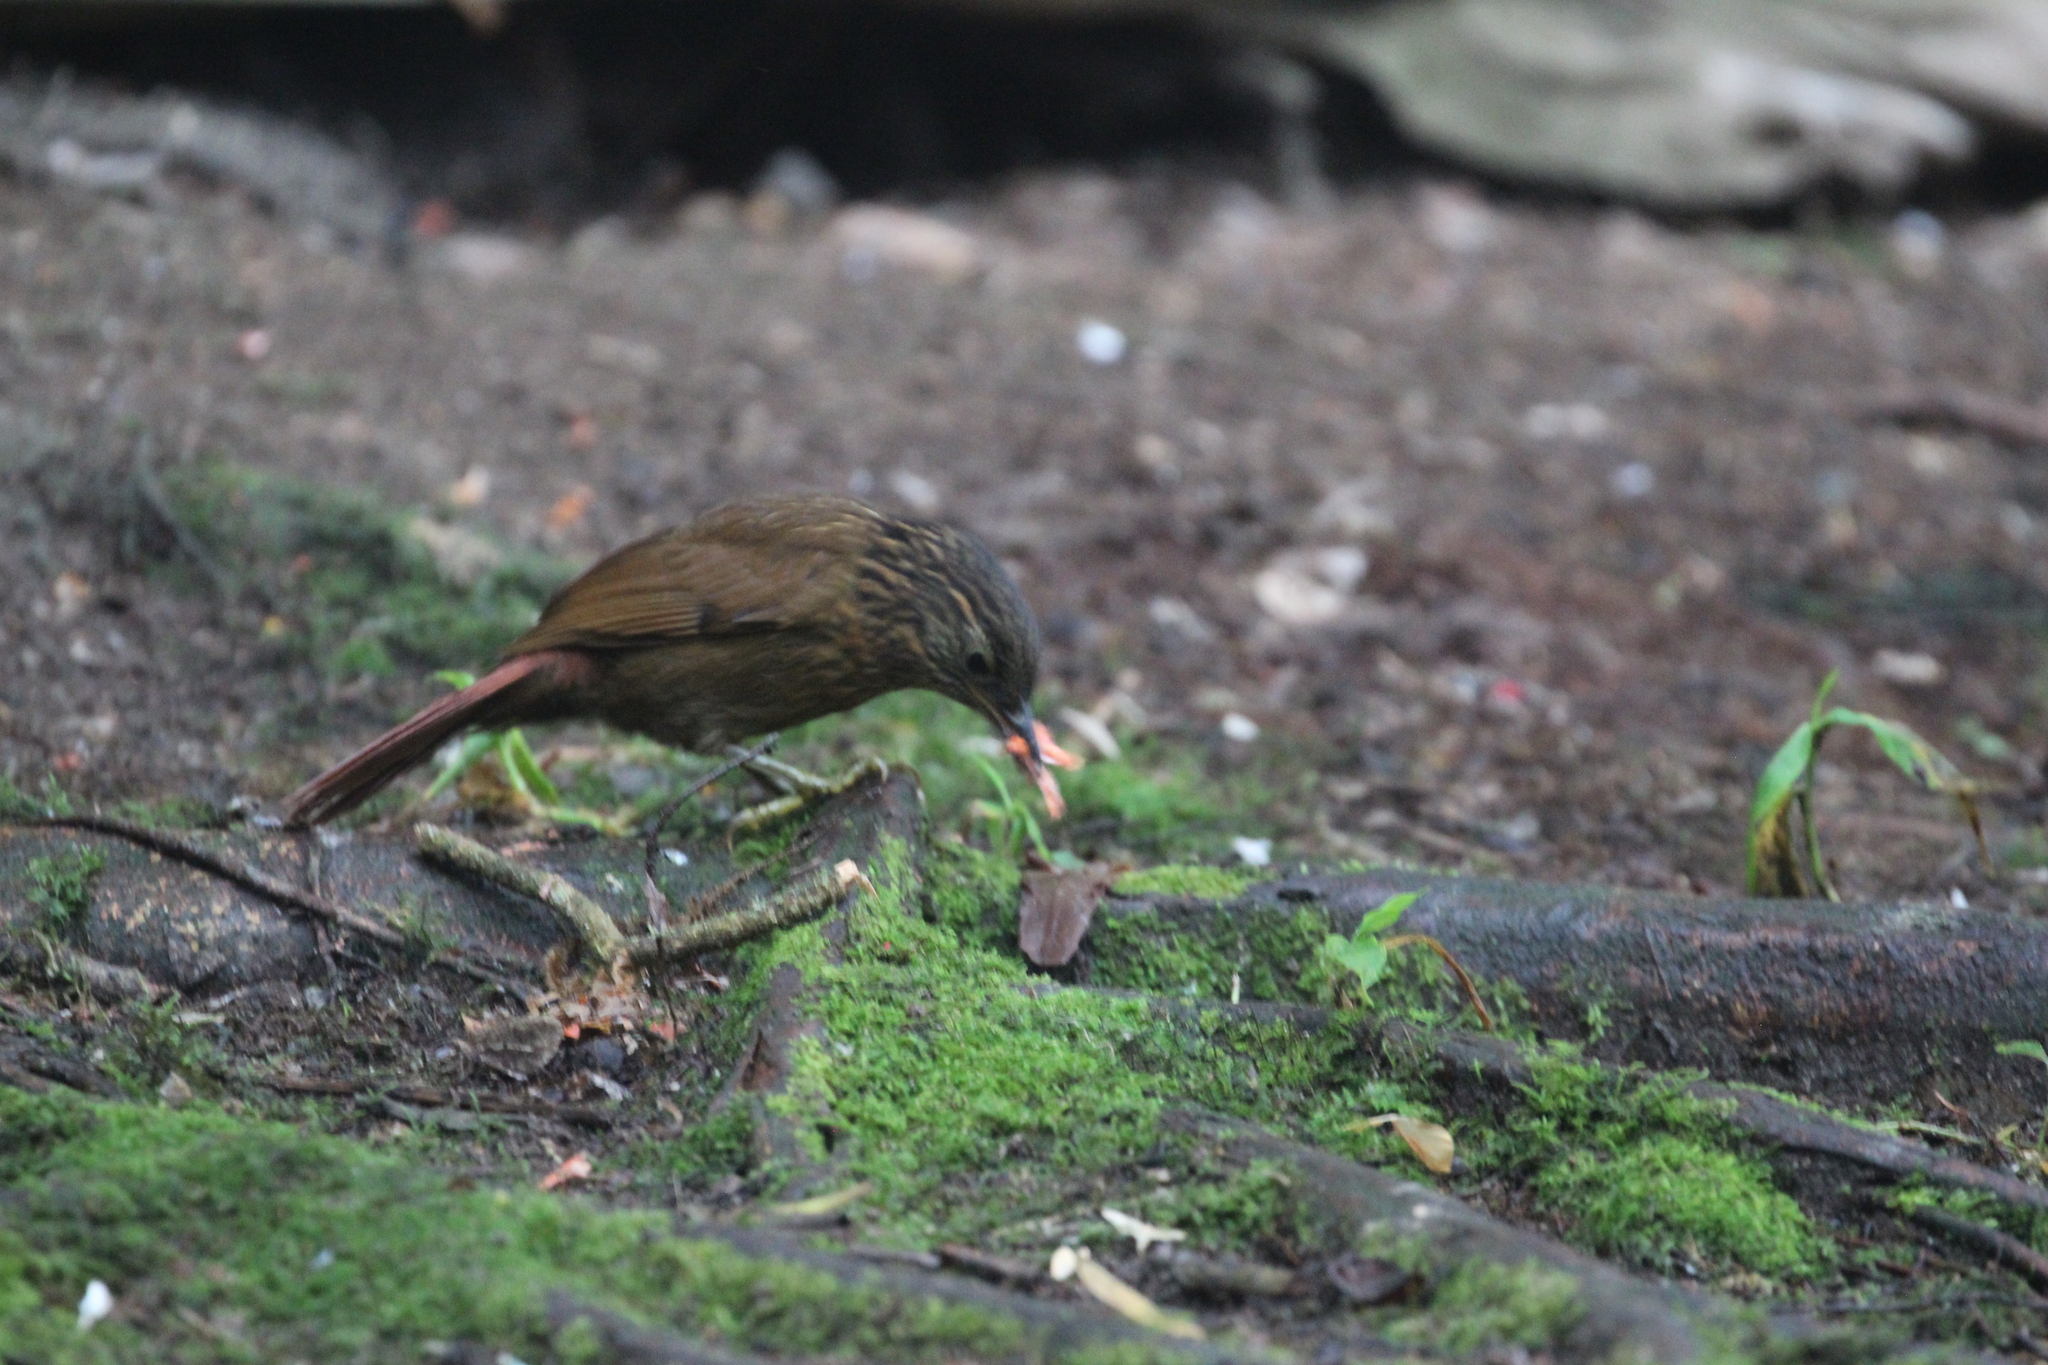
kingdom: Animalia
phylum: Chordata
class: Aves
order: Passeriformes
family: Furnariidae
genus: Syndactyla
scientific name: Syndactyla subalaris
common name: Lineated foliage-gleaner
